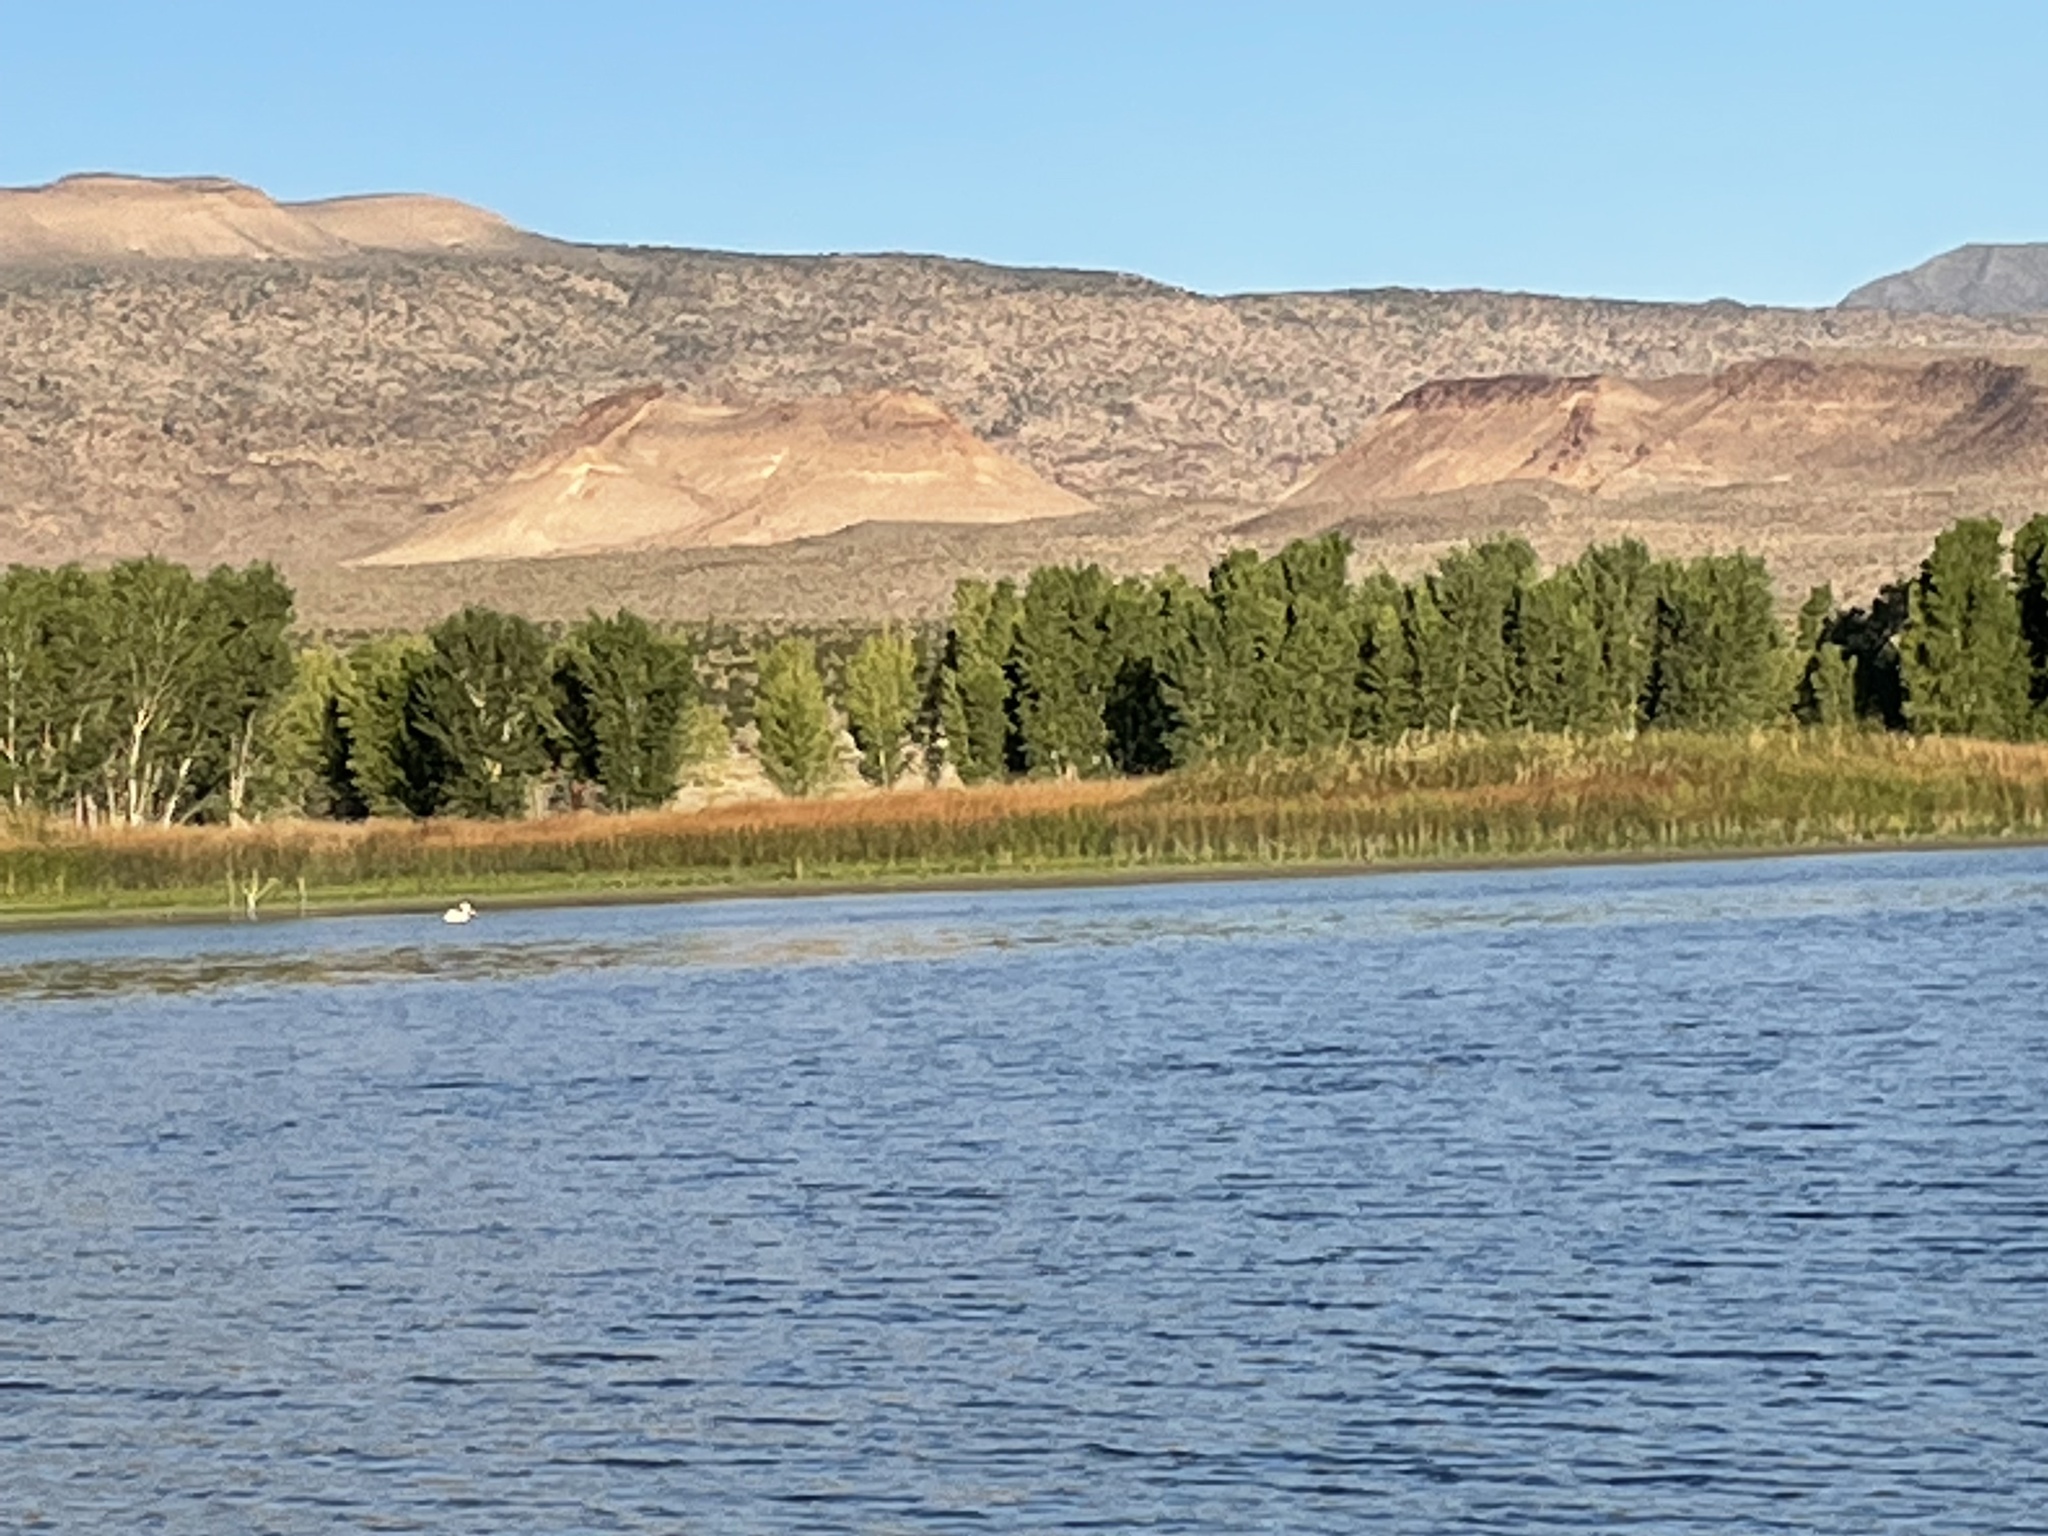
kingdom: Animalia
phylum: Chordata
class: Aves
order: Pelecaniformes
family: Pelecanidae
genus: Pelecanus
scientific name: Pelecanus erythrorhynchos
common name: American white pelican
